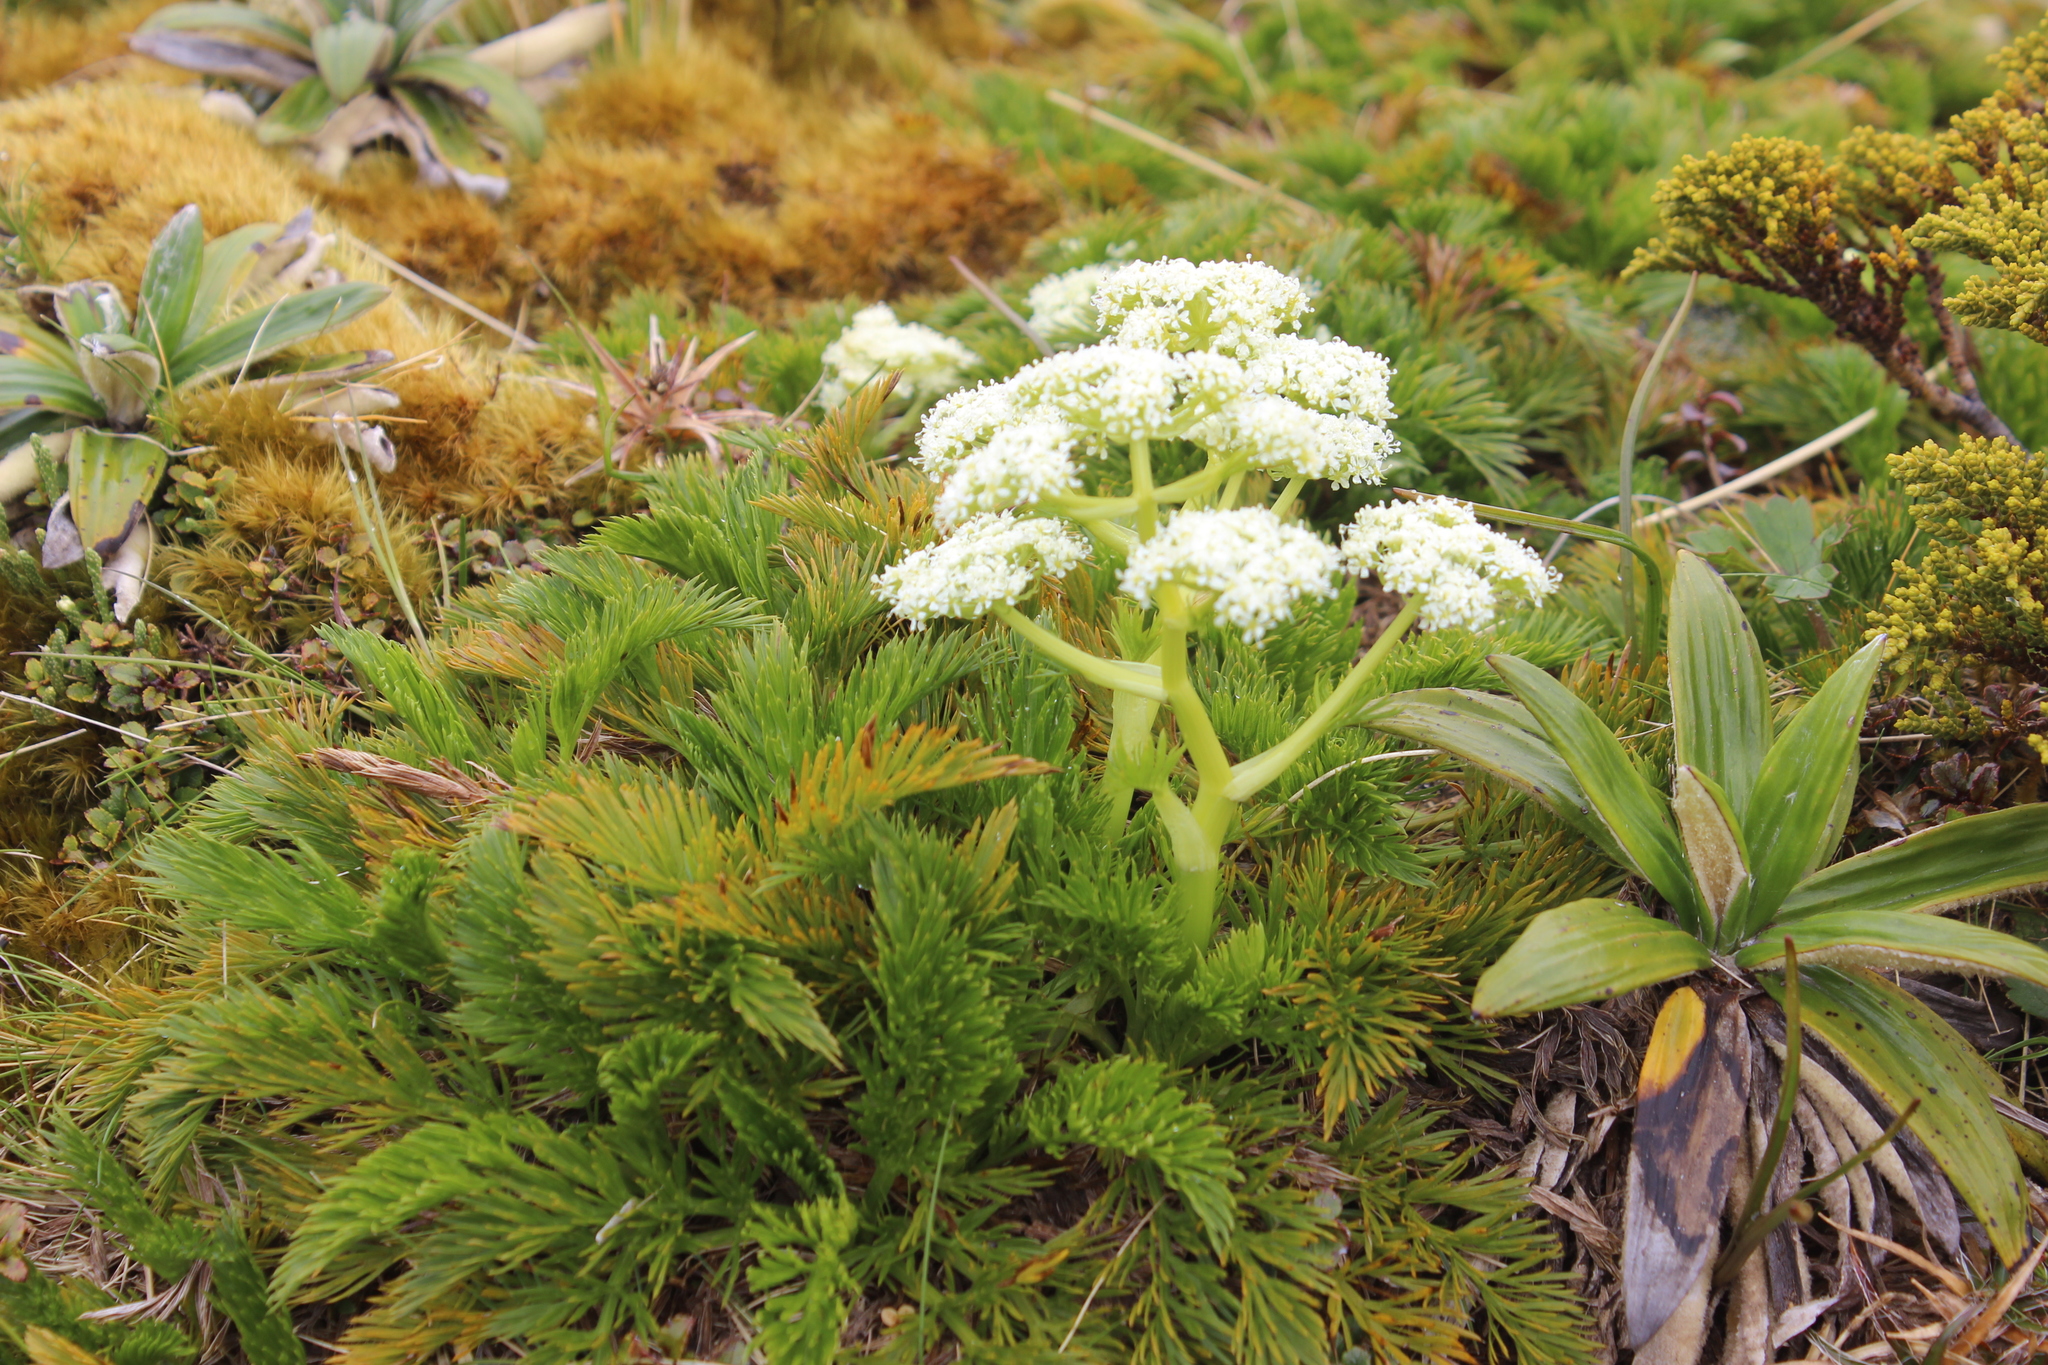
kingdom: Plantae
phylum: Tracheophyta
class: Magnoliopsida
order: Apiales
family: Apiaceae
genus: Aciphylla
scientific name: Aciphylla dissecta
